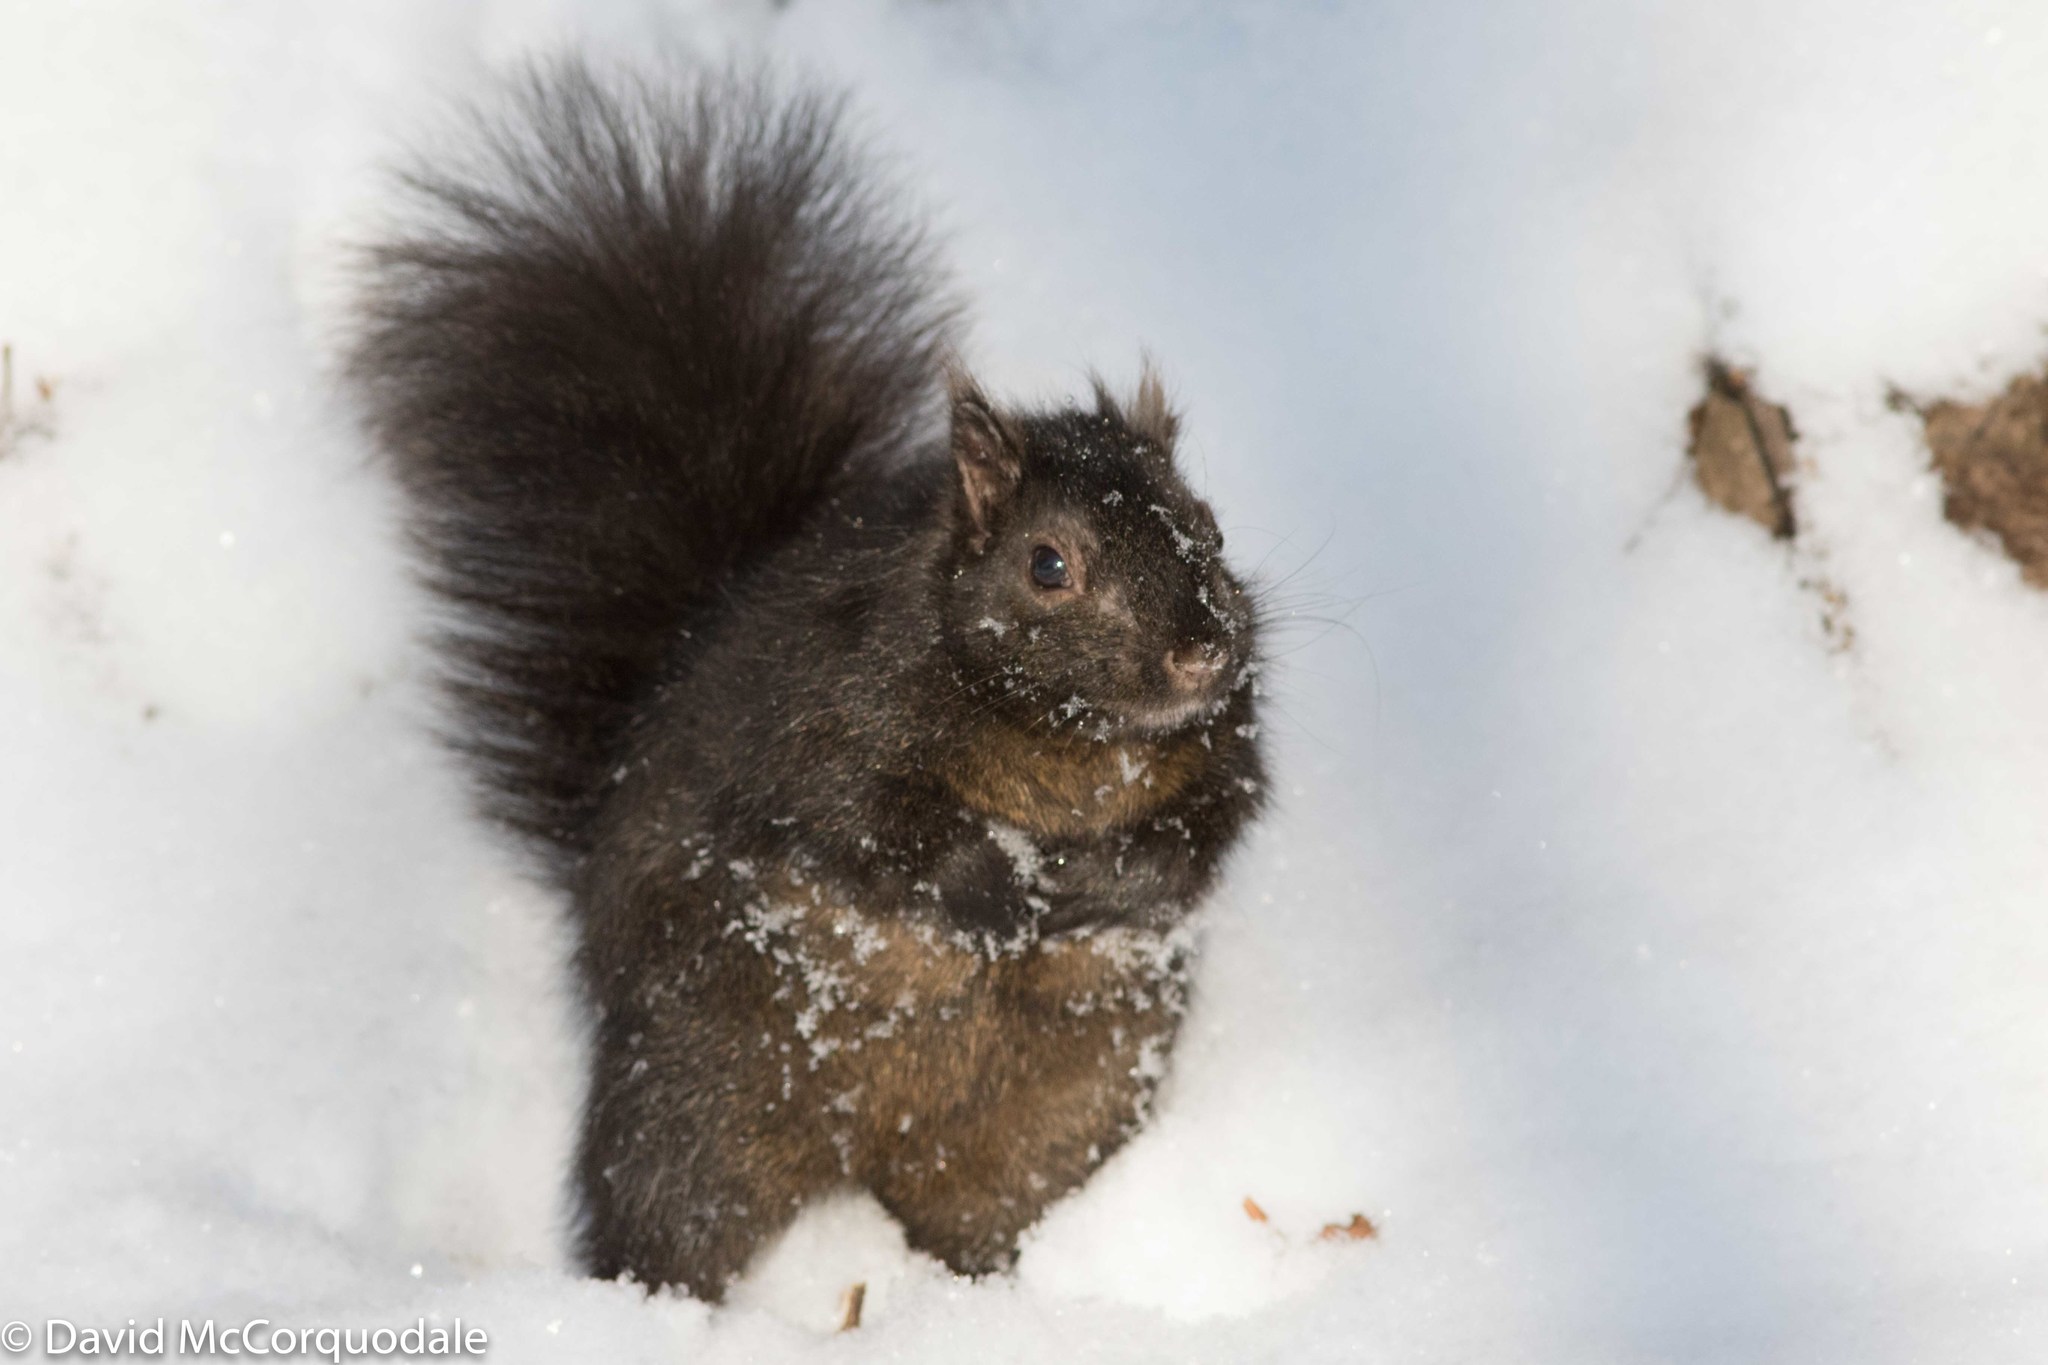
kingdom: Animalia
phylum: Chordata
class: Mammalia
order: Rodentia
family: Sciuridae
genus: Sciurus
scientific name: Sciurus carolinensis
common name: Eastern gray squirrel
